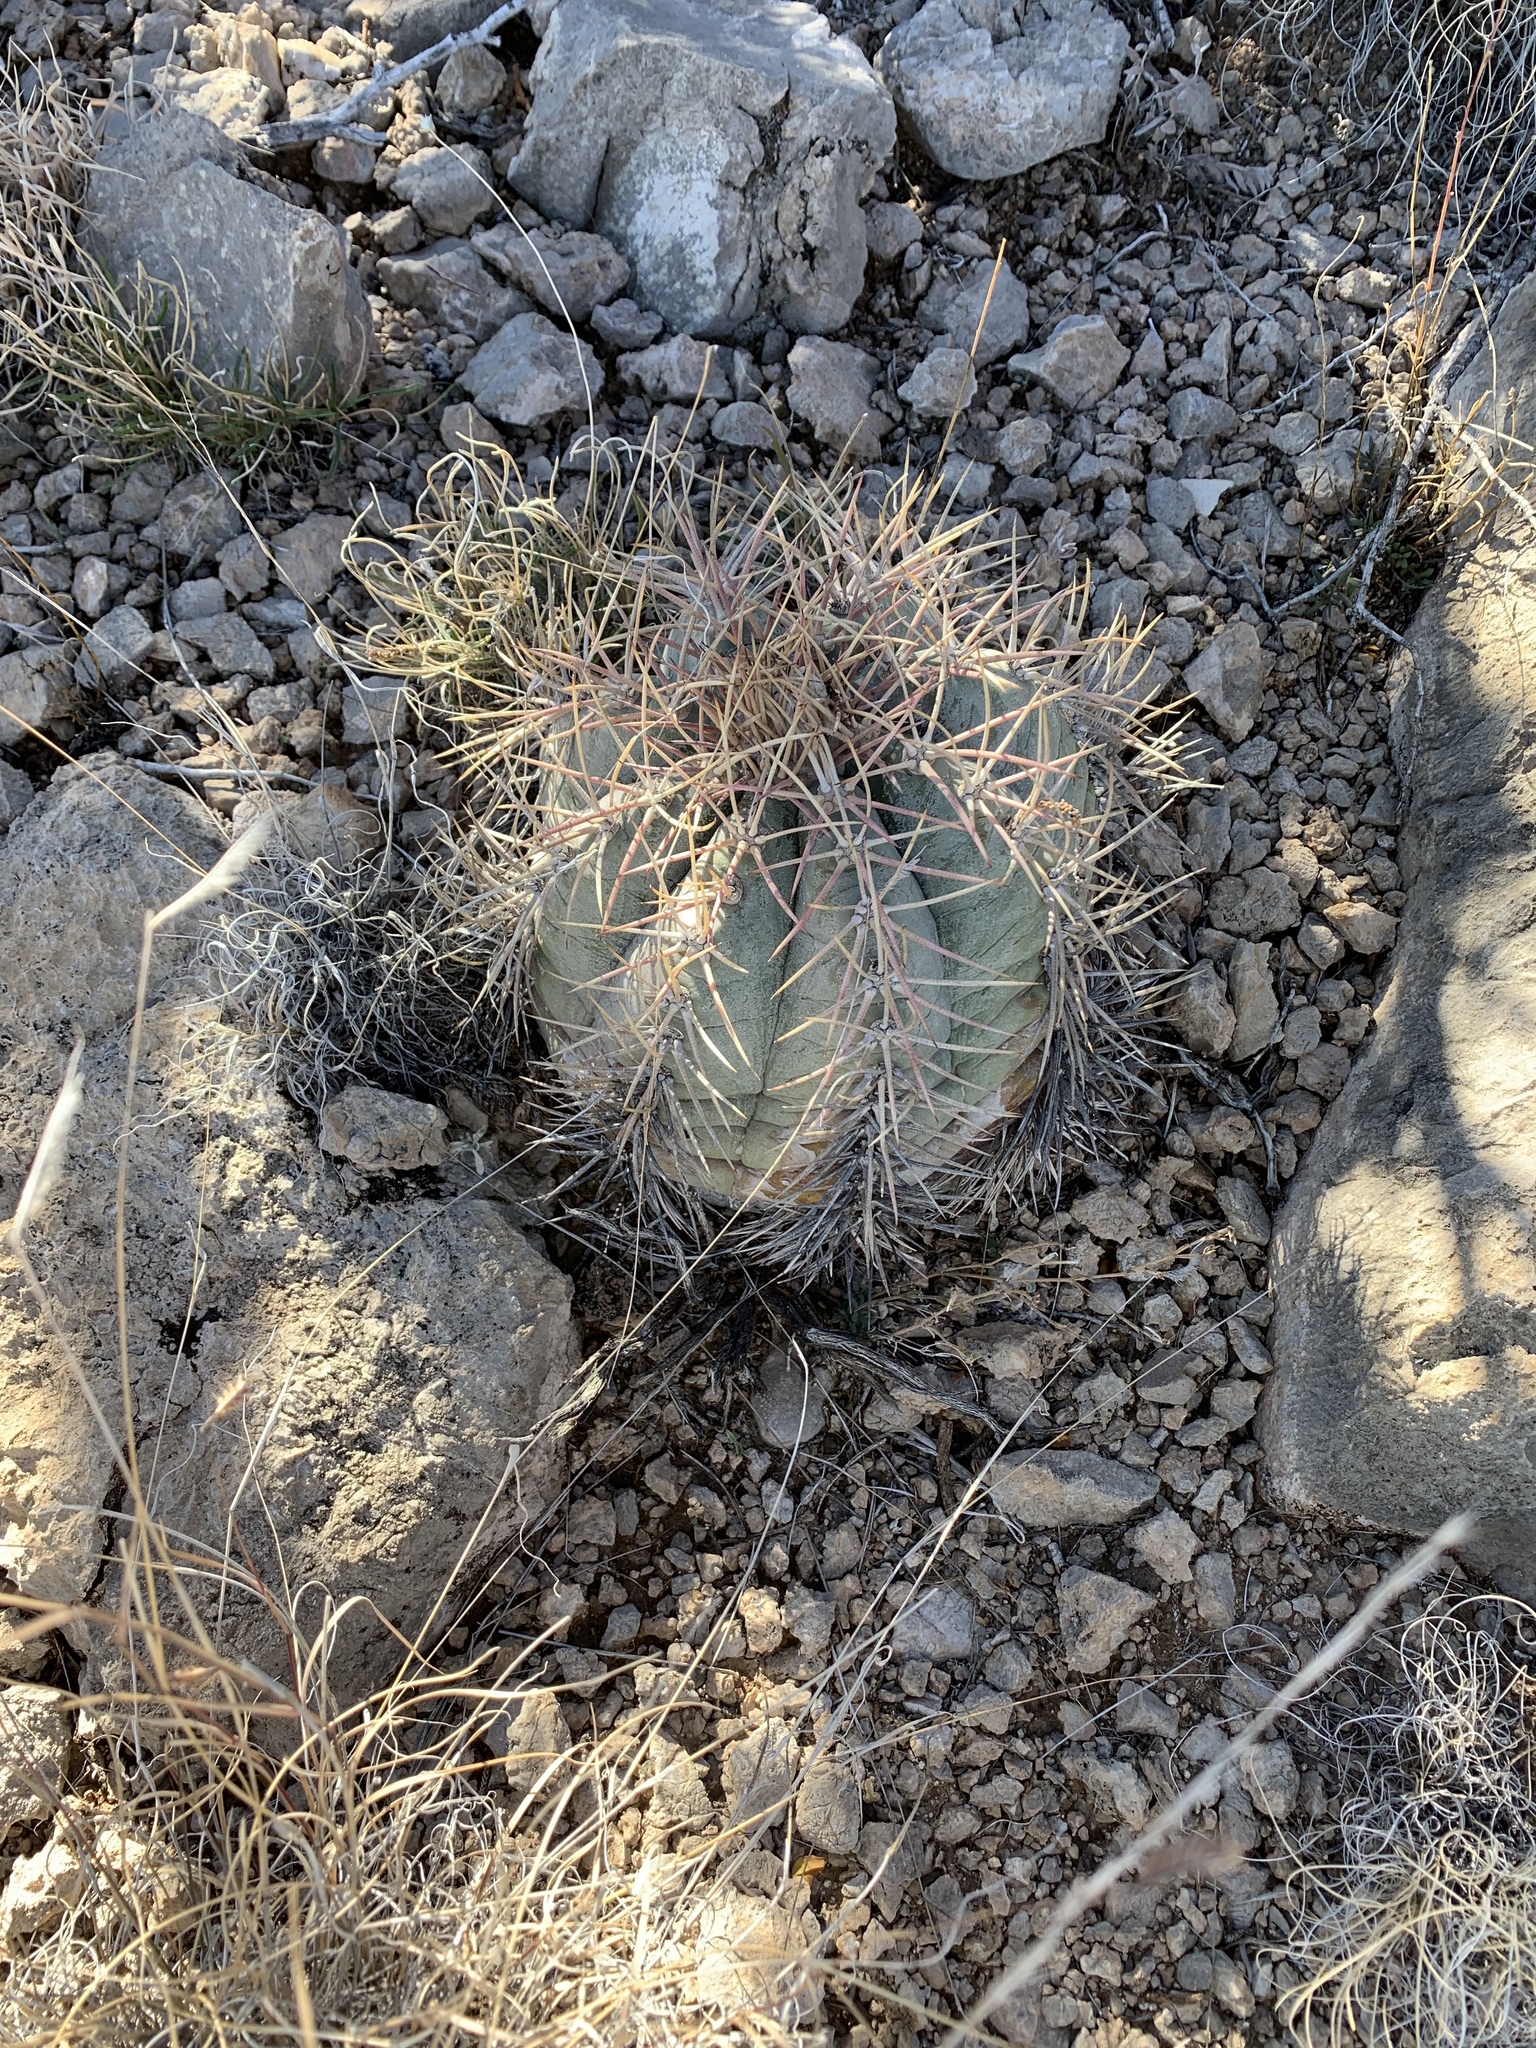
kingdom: Plantae
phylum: Tracheophyta
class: Magnoliopsida
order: Caryophyllales
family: Cactaceae
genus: Echinocactus
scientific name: Echinocactus horizonthalonius
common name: Devilshead
